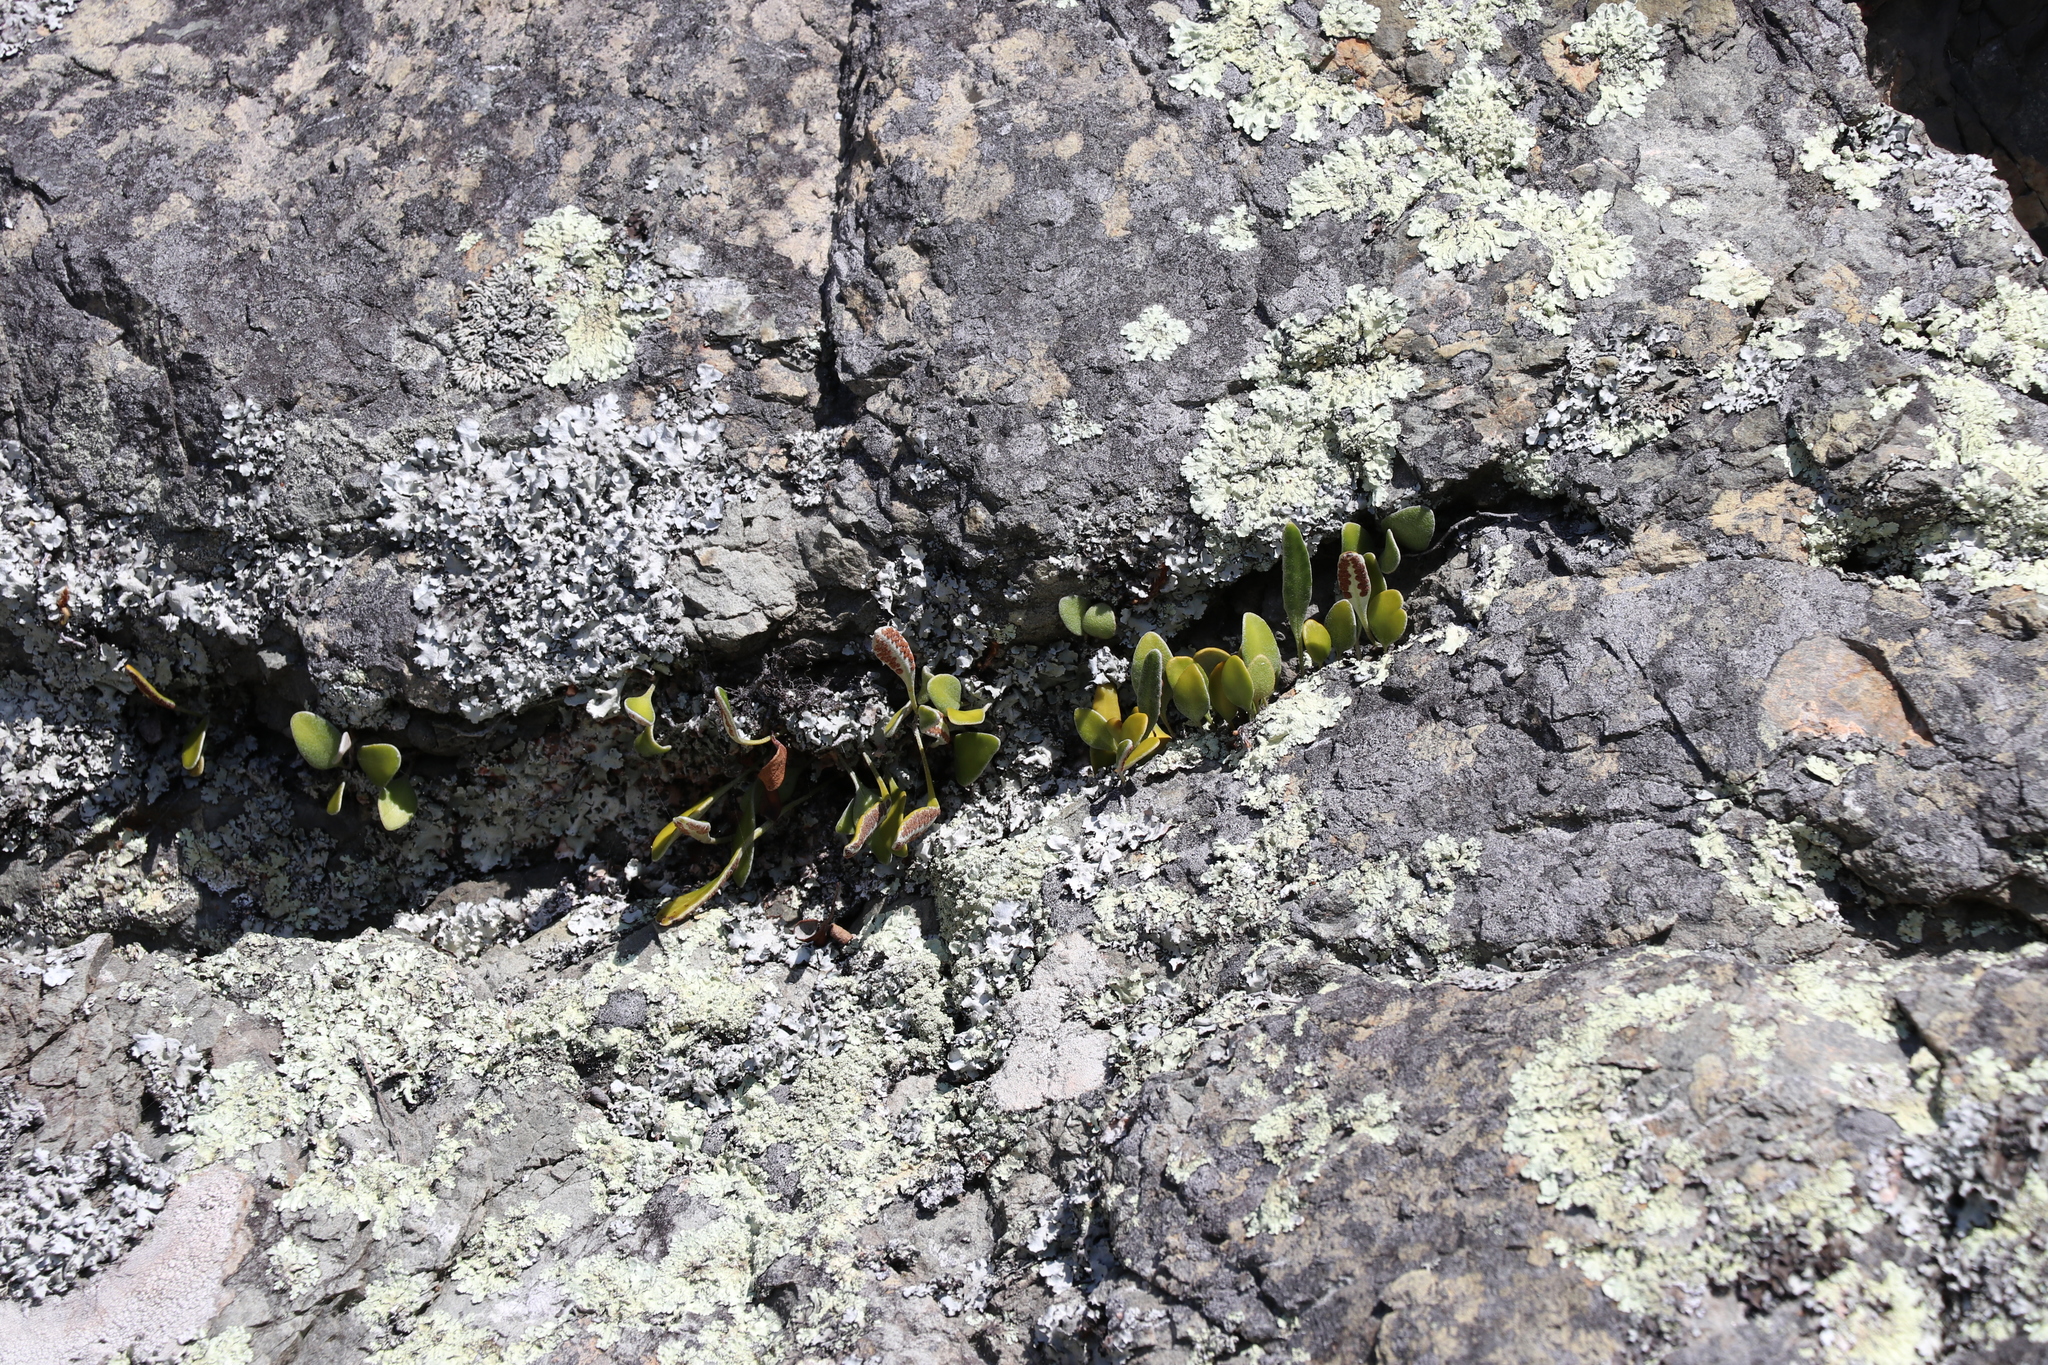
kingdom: Plantae
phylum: Tracheophyta
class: Polypodiopsida
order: Polypodiales
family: Polypodiaceae
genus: Pyrrosia
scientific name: Pyrrosia eleagnifolia
